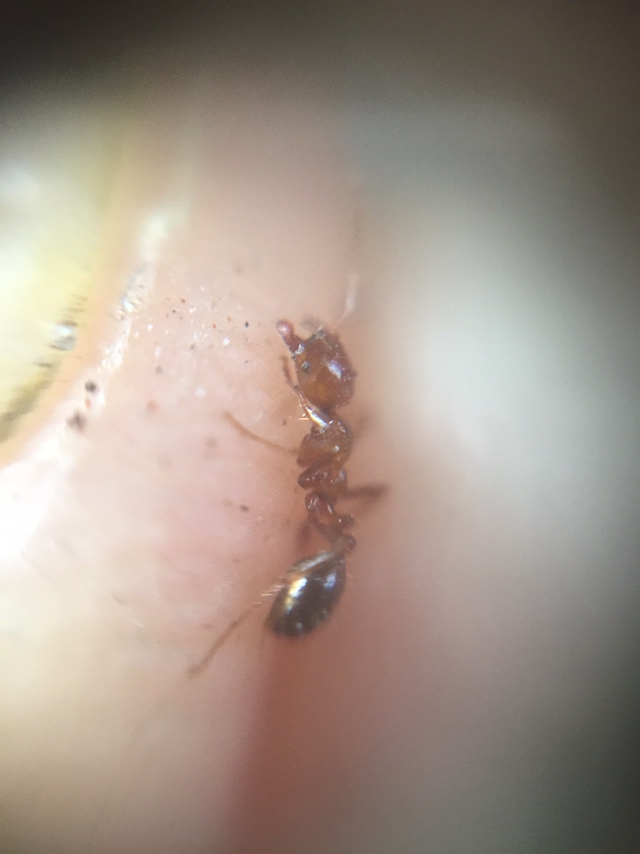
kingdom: Animalia
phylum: Arthropoda
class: Insecta
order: Hymenoptera
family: Formicidae
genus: Solenopsis
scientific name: Solenopsis geminata
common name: Tropical fire ant
